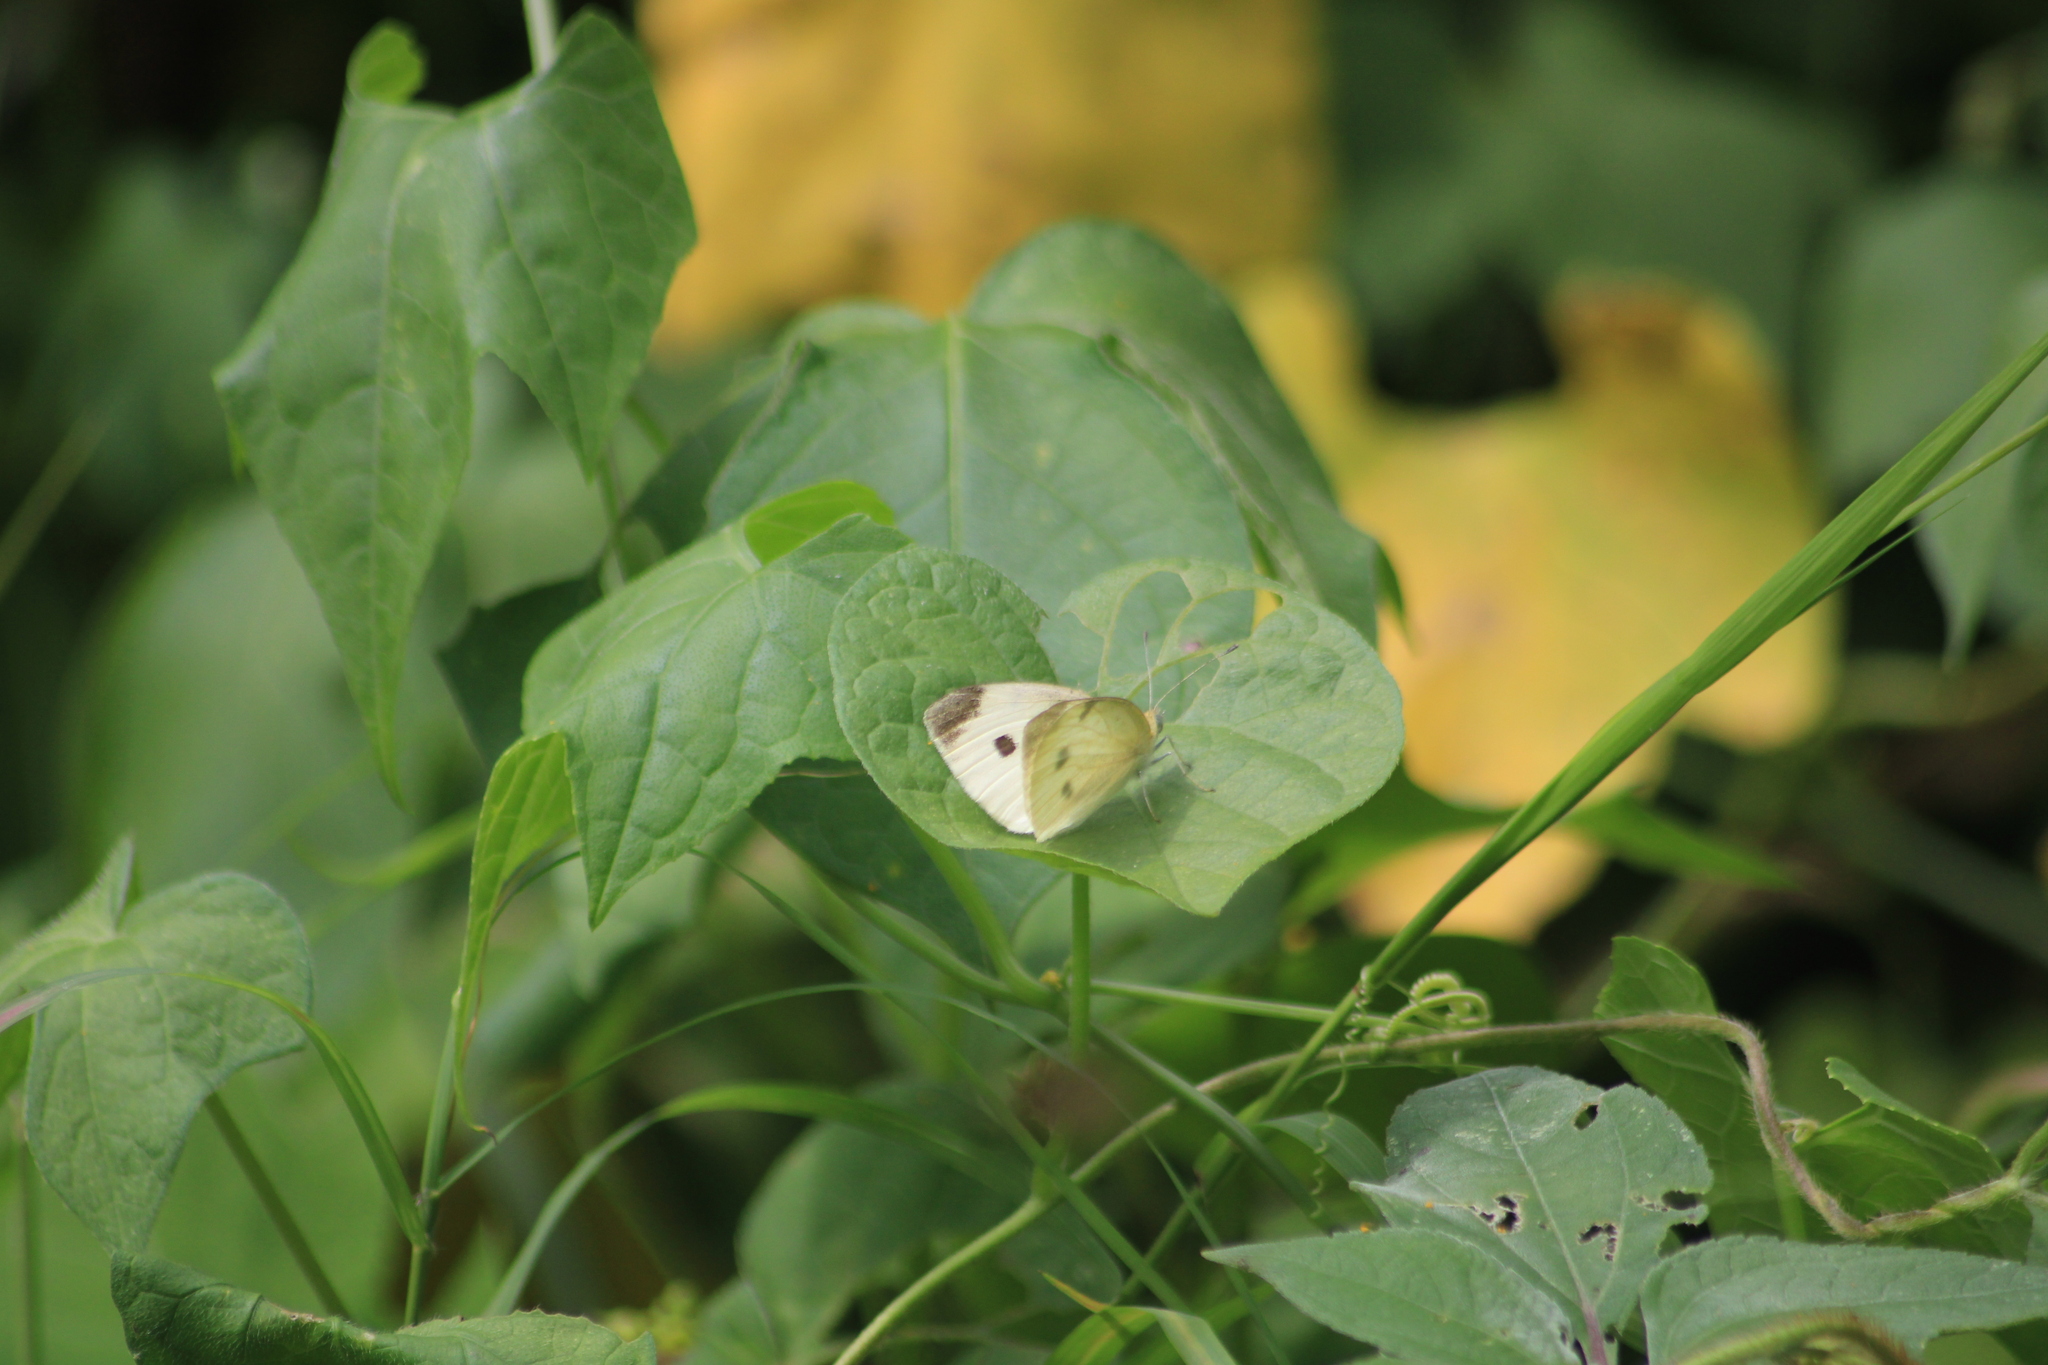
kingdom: Animalia
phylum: Arthropoda
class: Insecta
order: Lepidoptera
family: Pieridae
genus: Pieris
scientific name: Pieris rapae
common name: Small white
